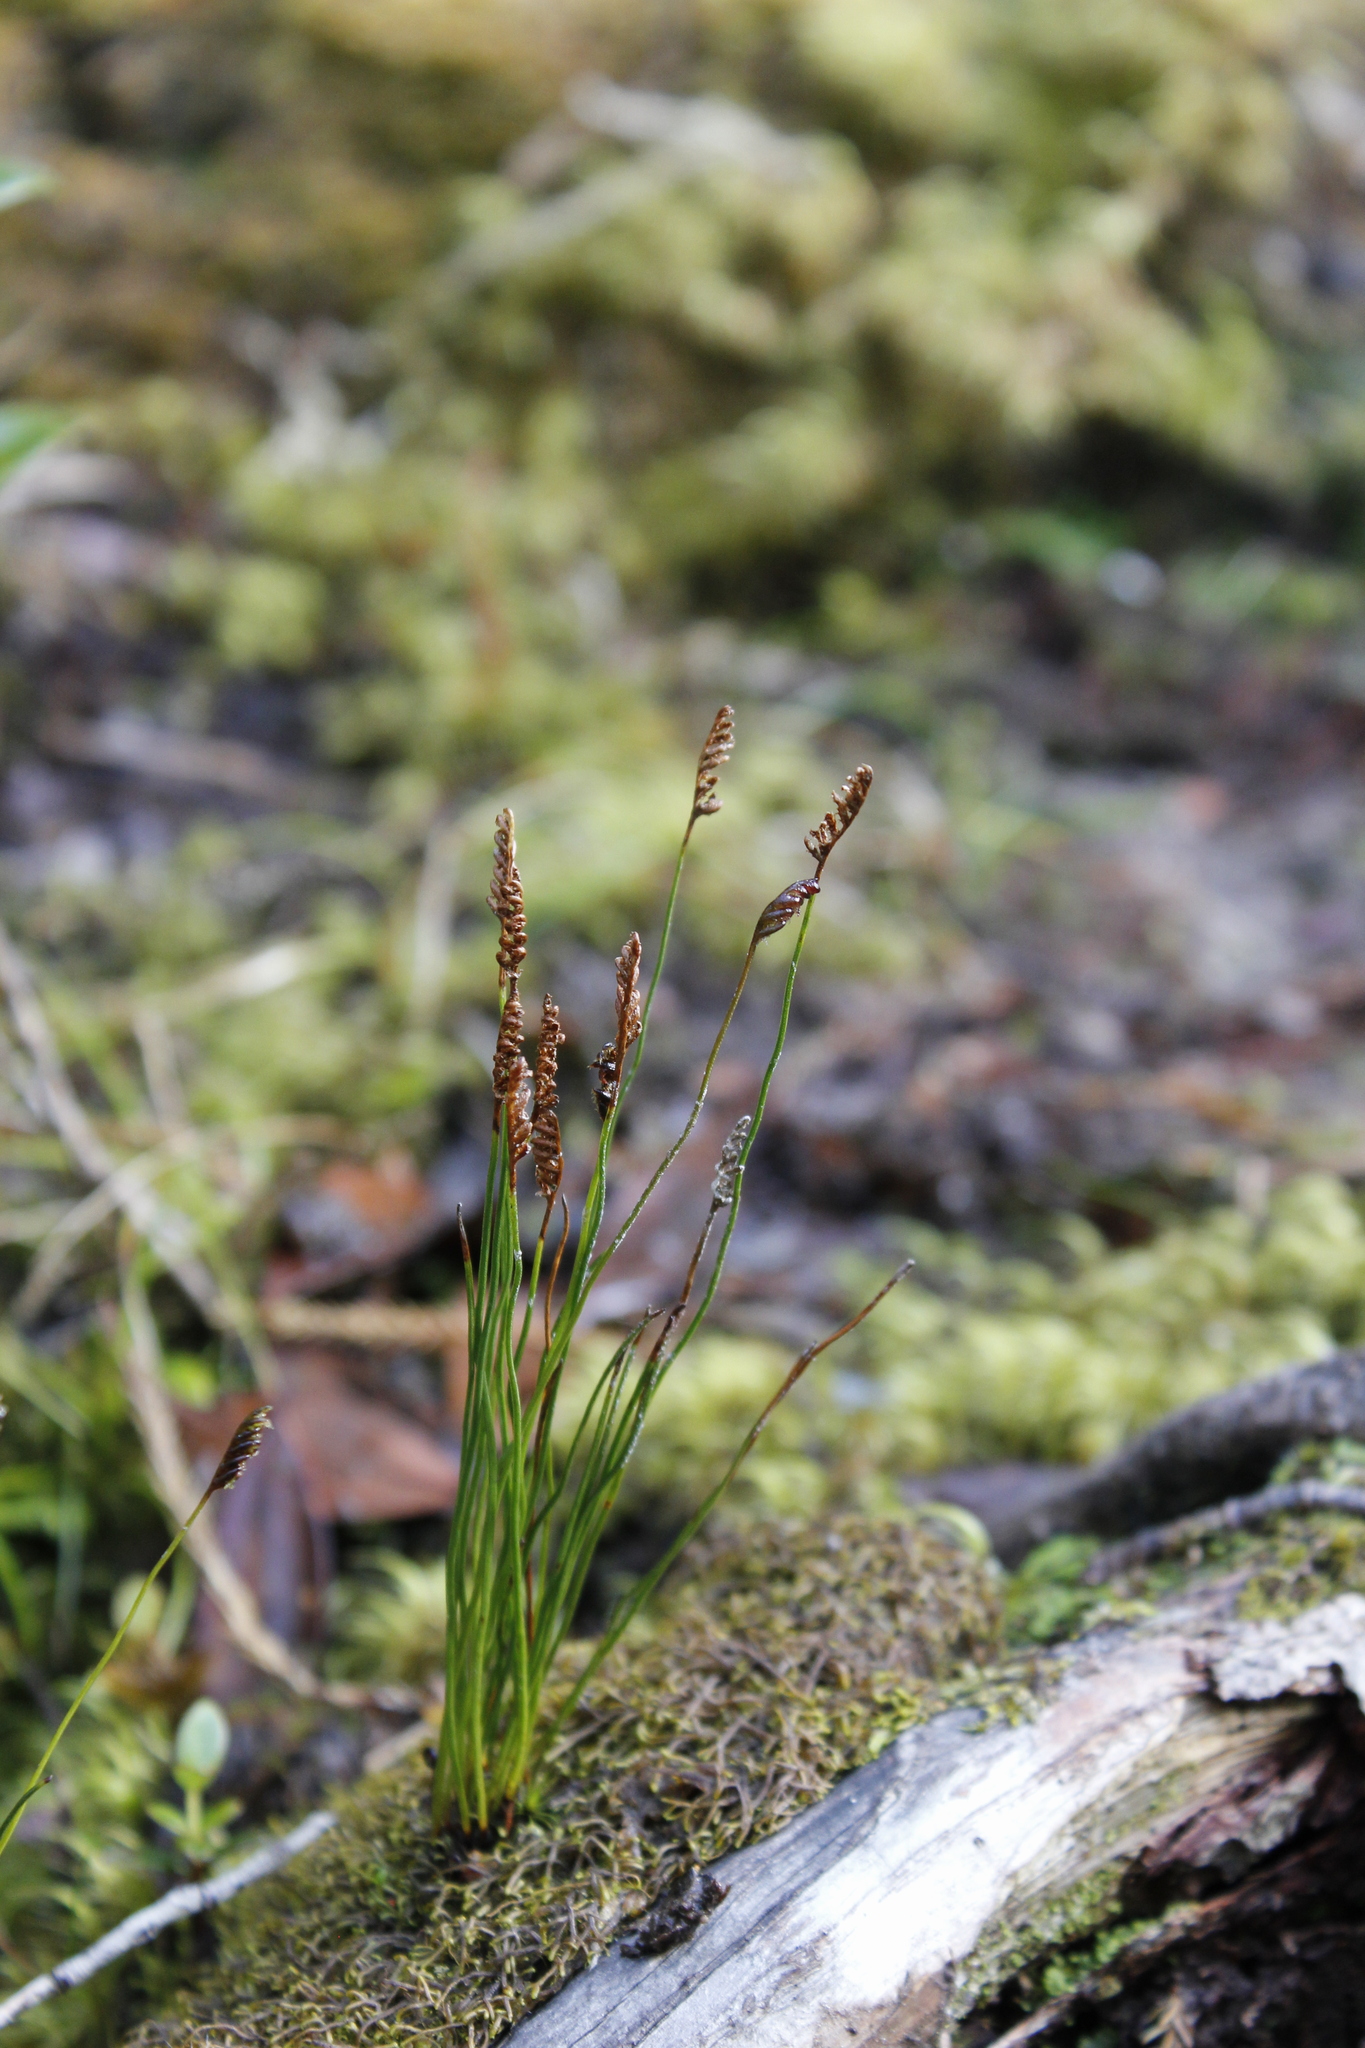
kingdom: Plantae
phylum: Tracheophyta
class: Polypodiopsida
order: Schizaeales
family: Schizaeaceae
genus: Microschizaea
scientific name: Microschizaea australis
